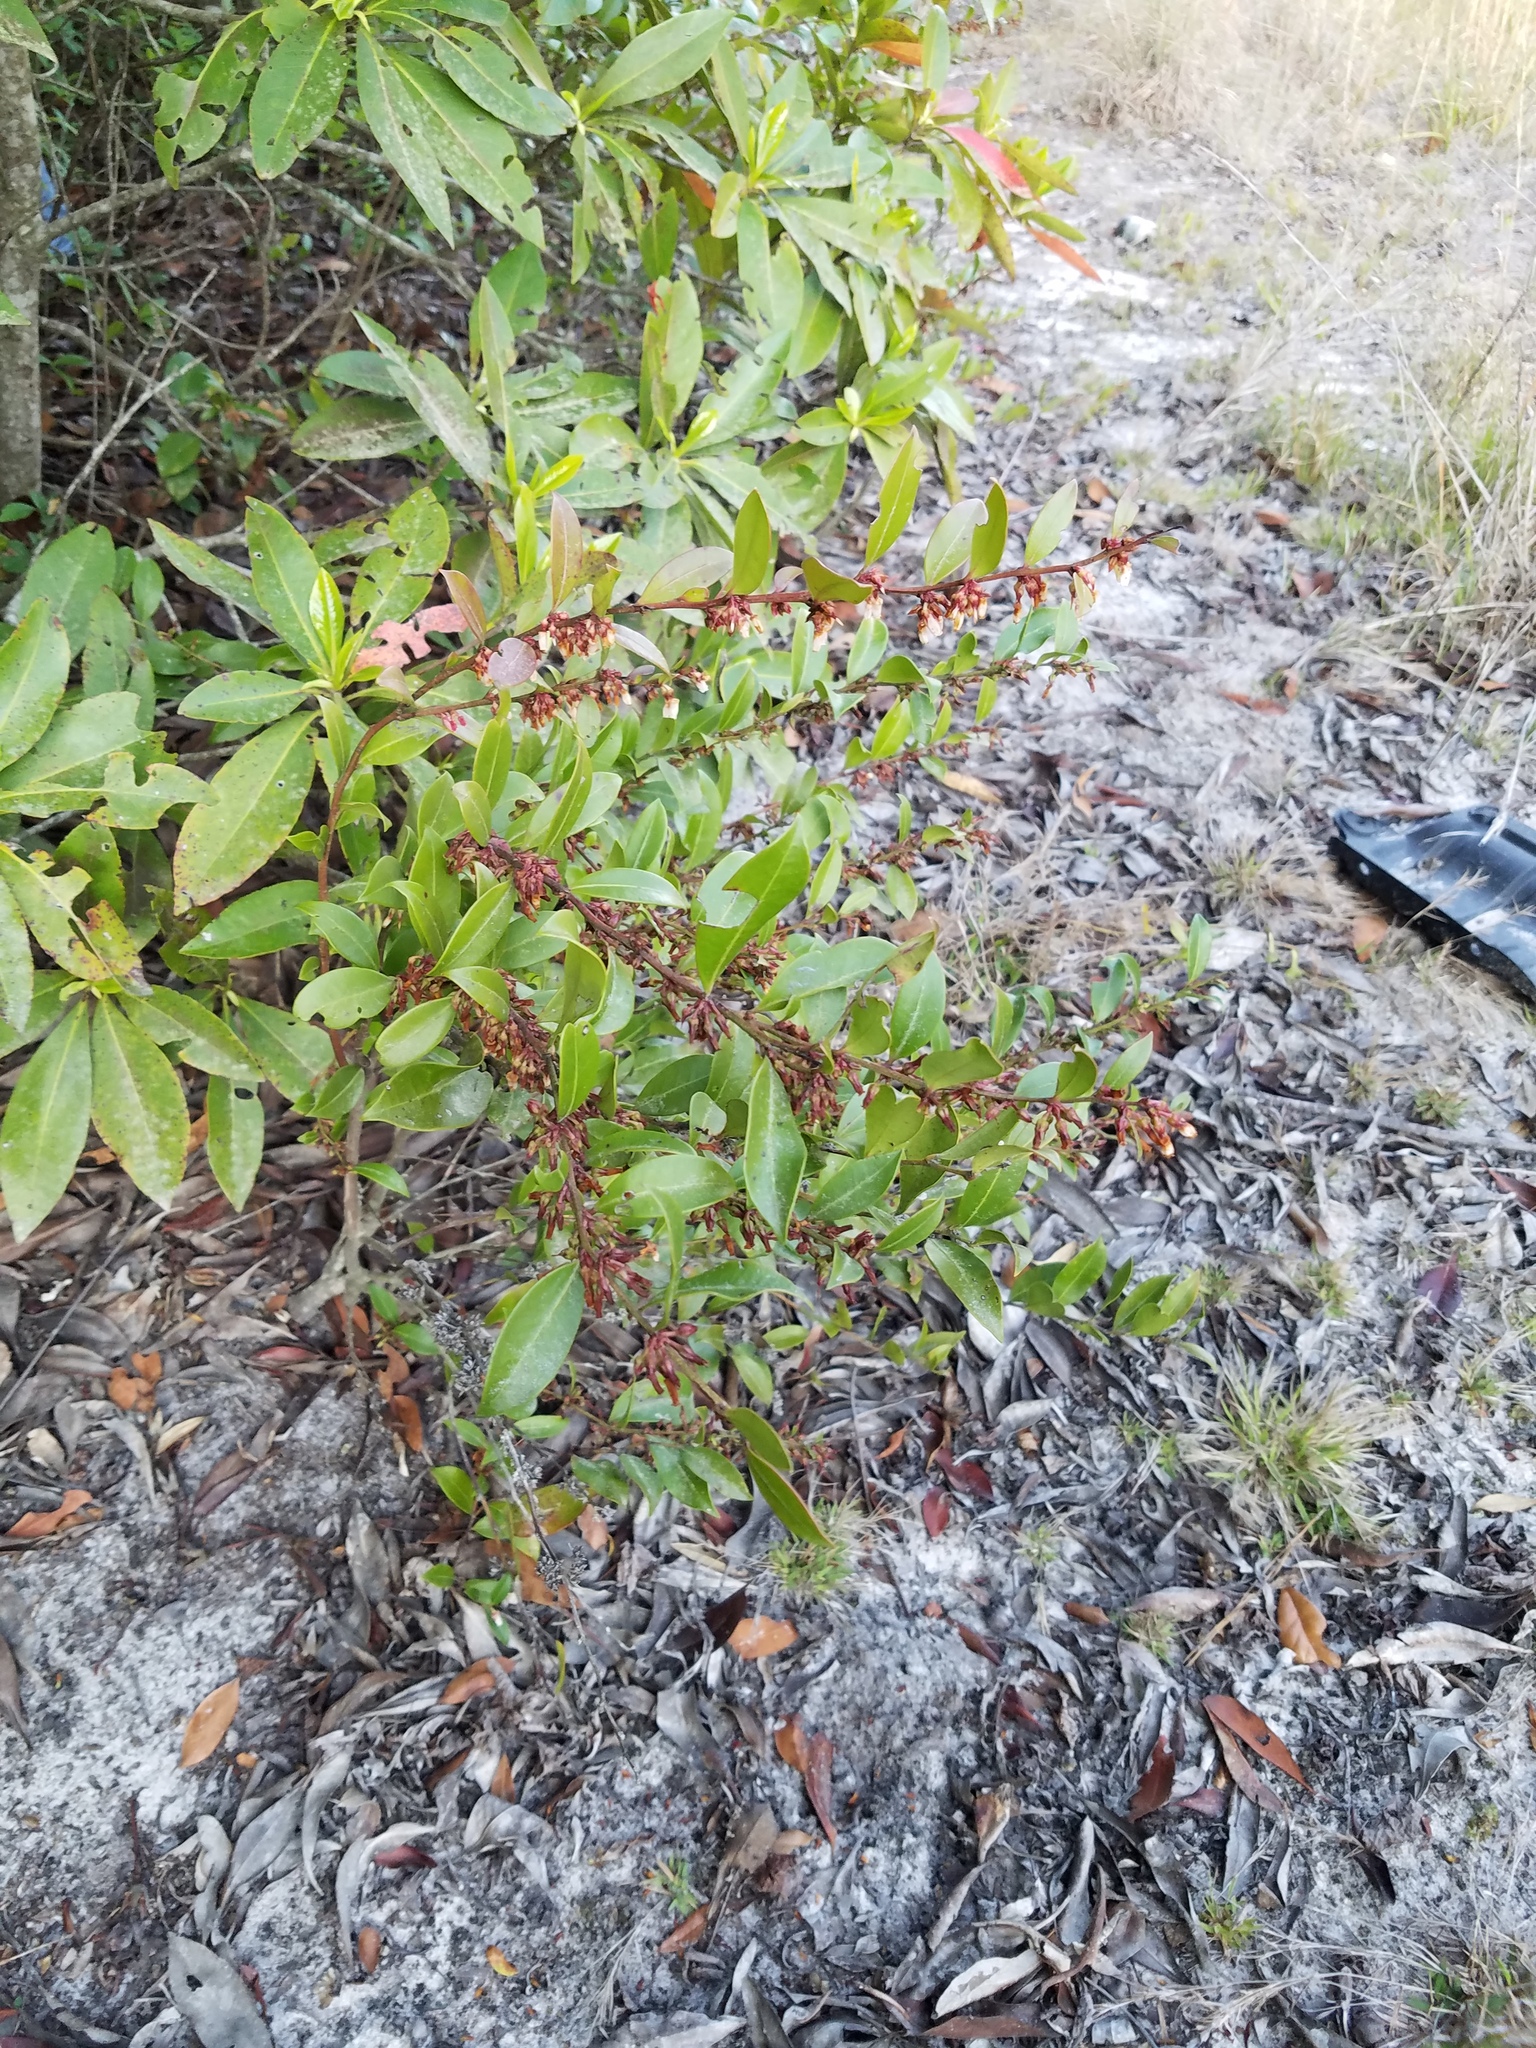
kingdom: Plantae
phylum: Tracheophyta
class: Magnoliopsida
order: Ericales
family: Ericaceae
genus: Lyonia
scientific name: Lyonia lucida
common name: Fetterbush
